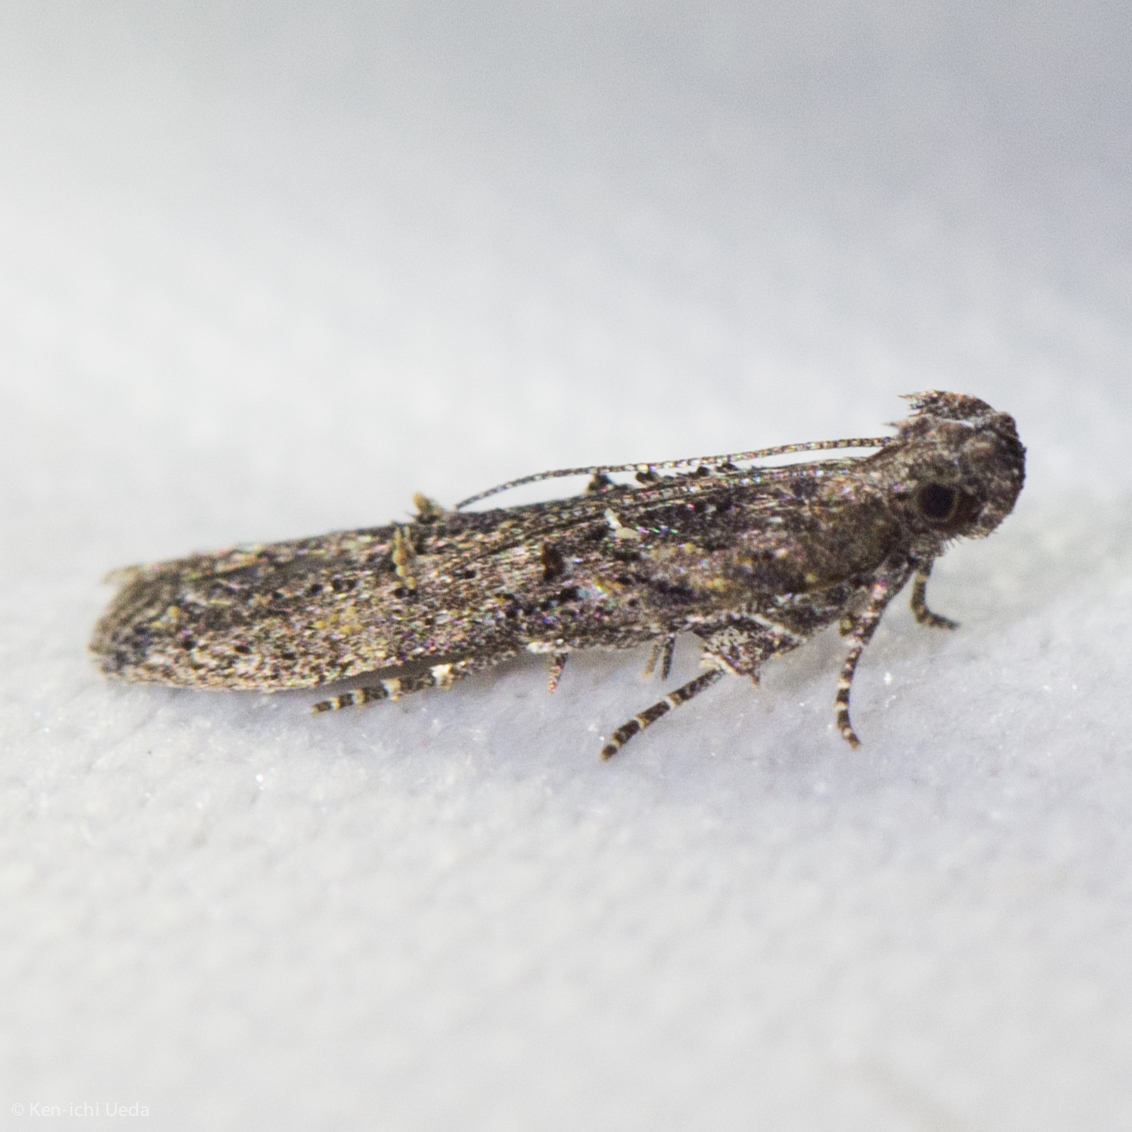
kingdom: Animalia
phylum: Arthropoda
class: Insecta
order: Lepidoptera
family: Gelechiidae
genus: Hypatima
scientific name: Hypatima zesticopa
